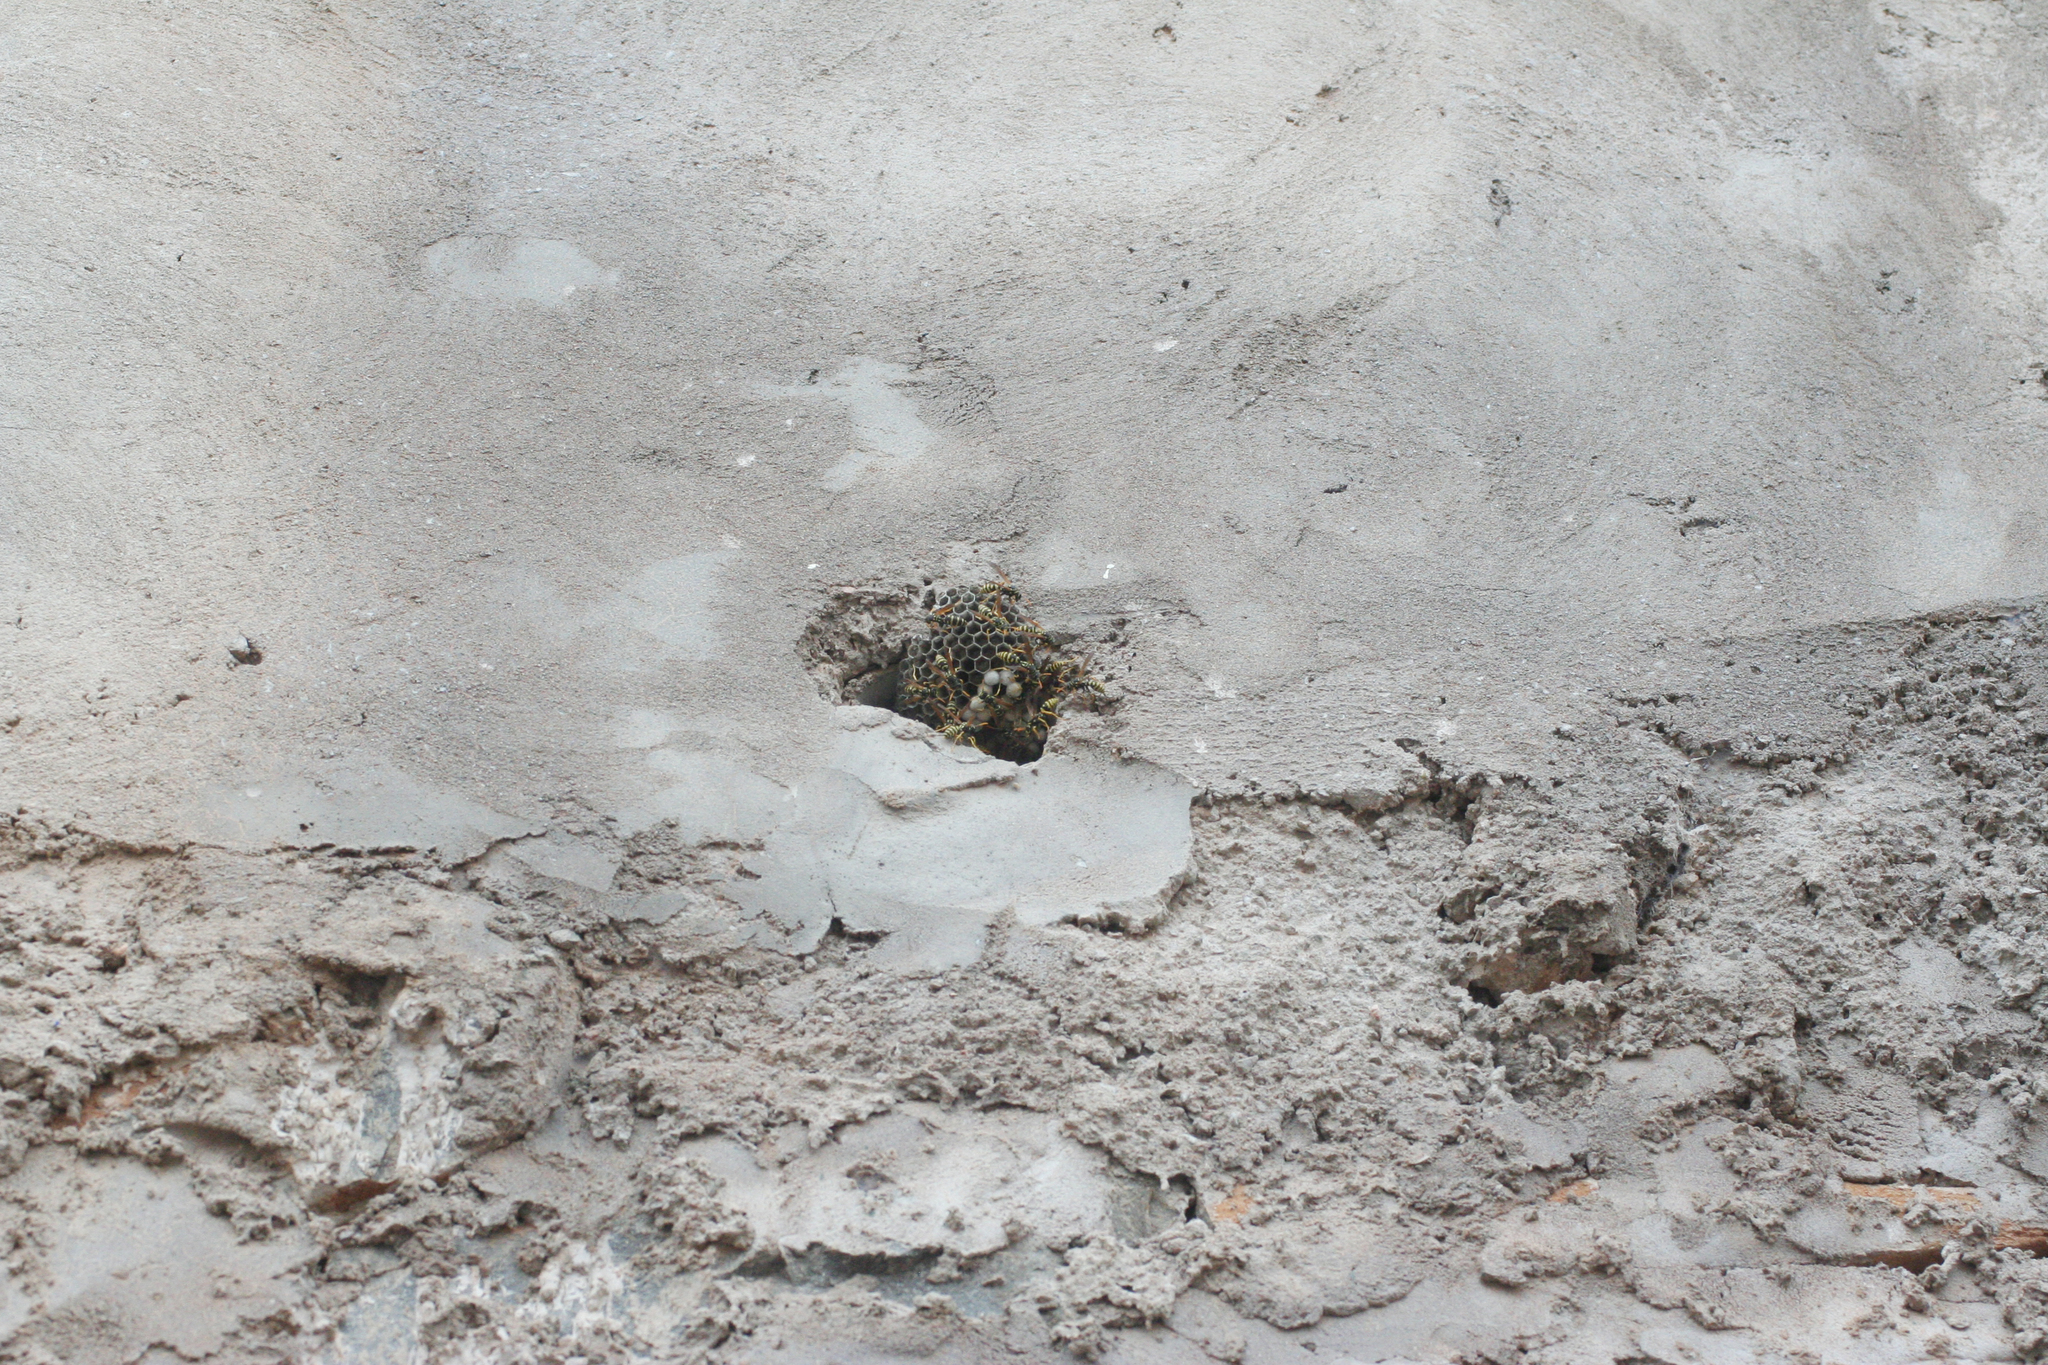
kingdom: Animalia
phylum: Arthropoda
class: Insecta
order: Hymenoptera
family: Eumenidae
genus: Polistes
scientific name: Polistes dominula
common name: Paper wasp
